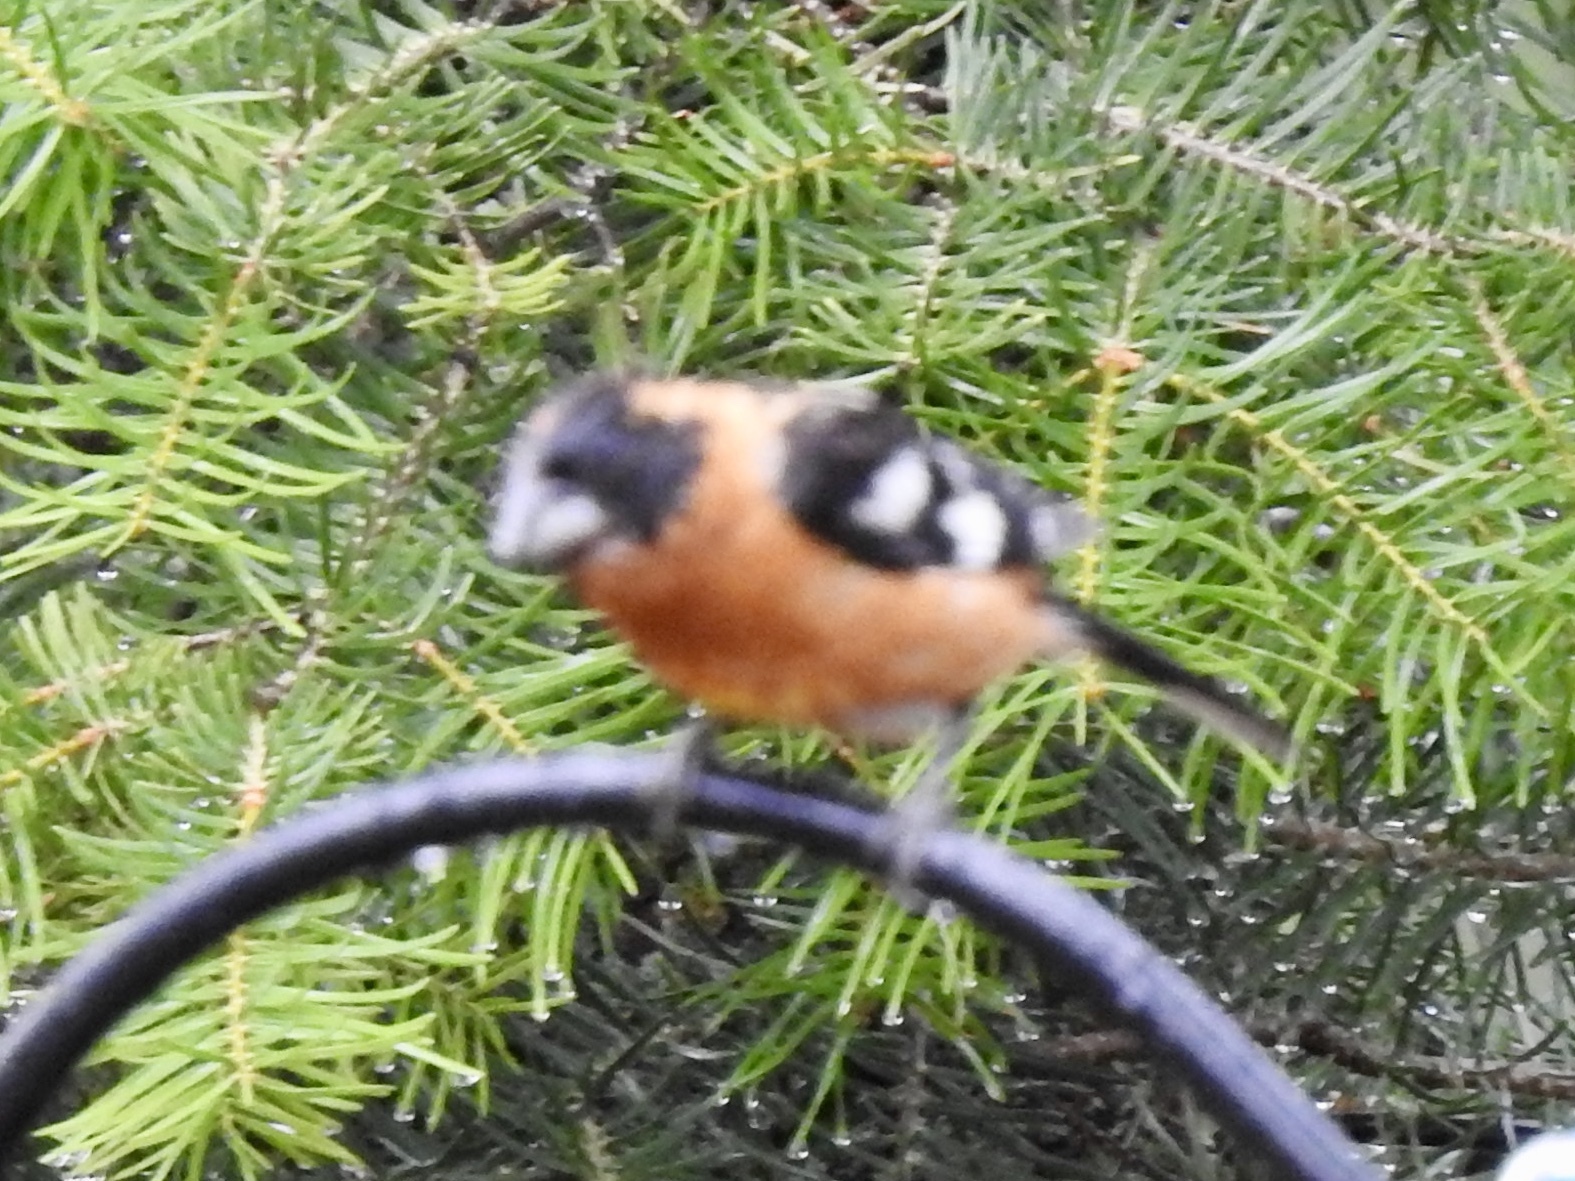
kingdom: Animalia
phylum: Chordata
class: Aves
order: Passeriformes
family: Cardinalidae
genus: Pheucticus
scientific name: Pheucticus melanocephalus
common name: Black-headed grosbeak
